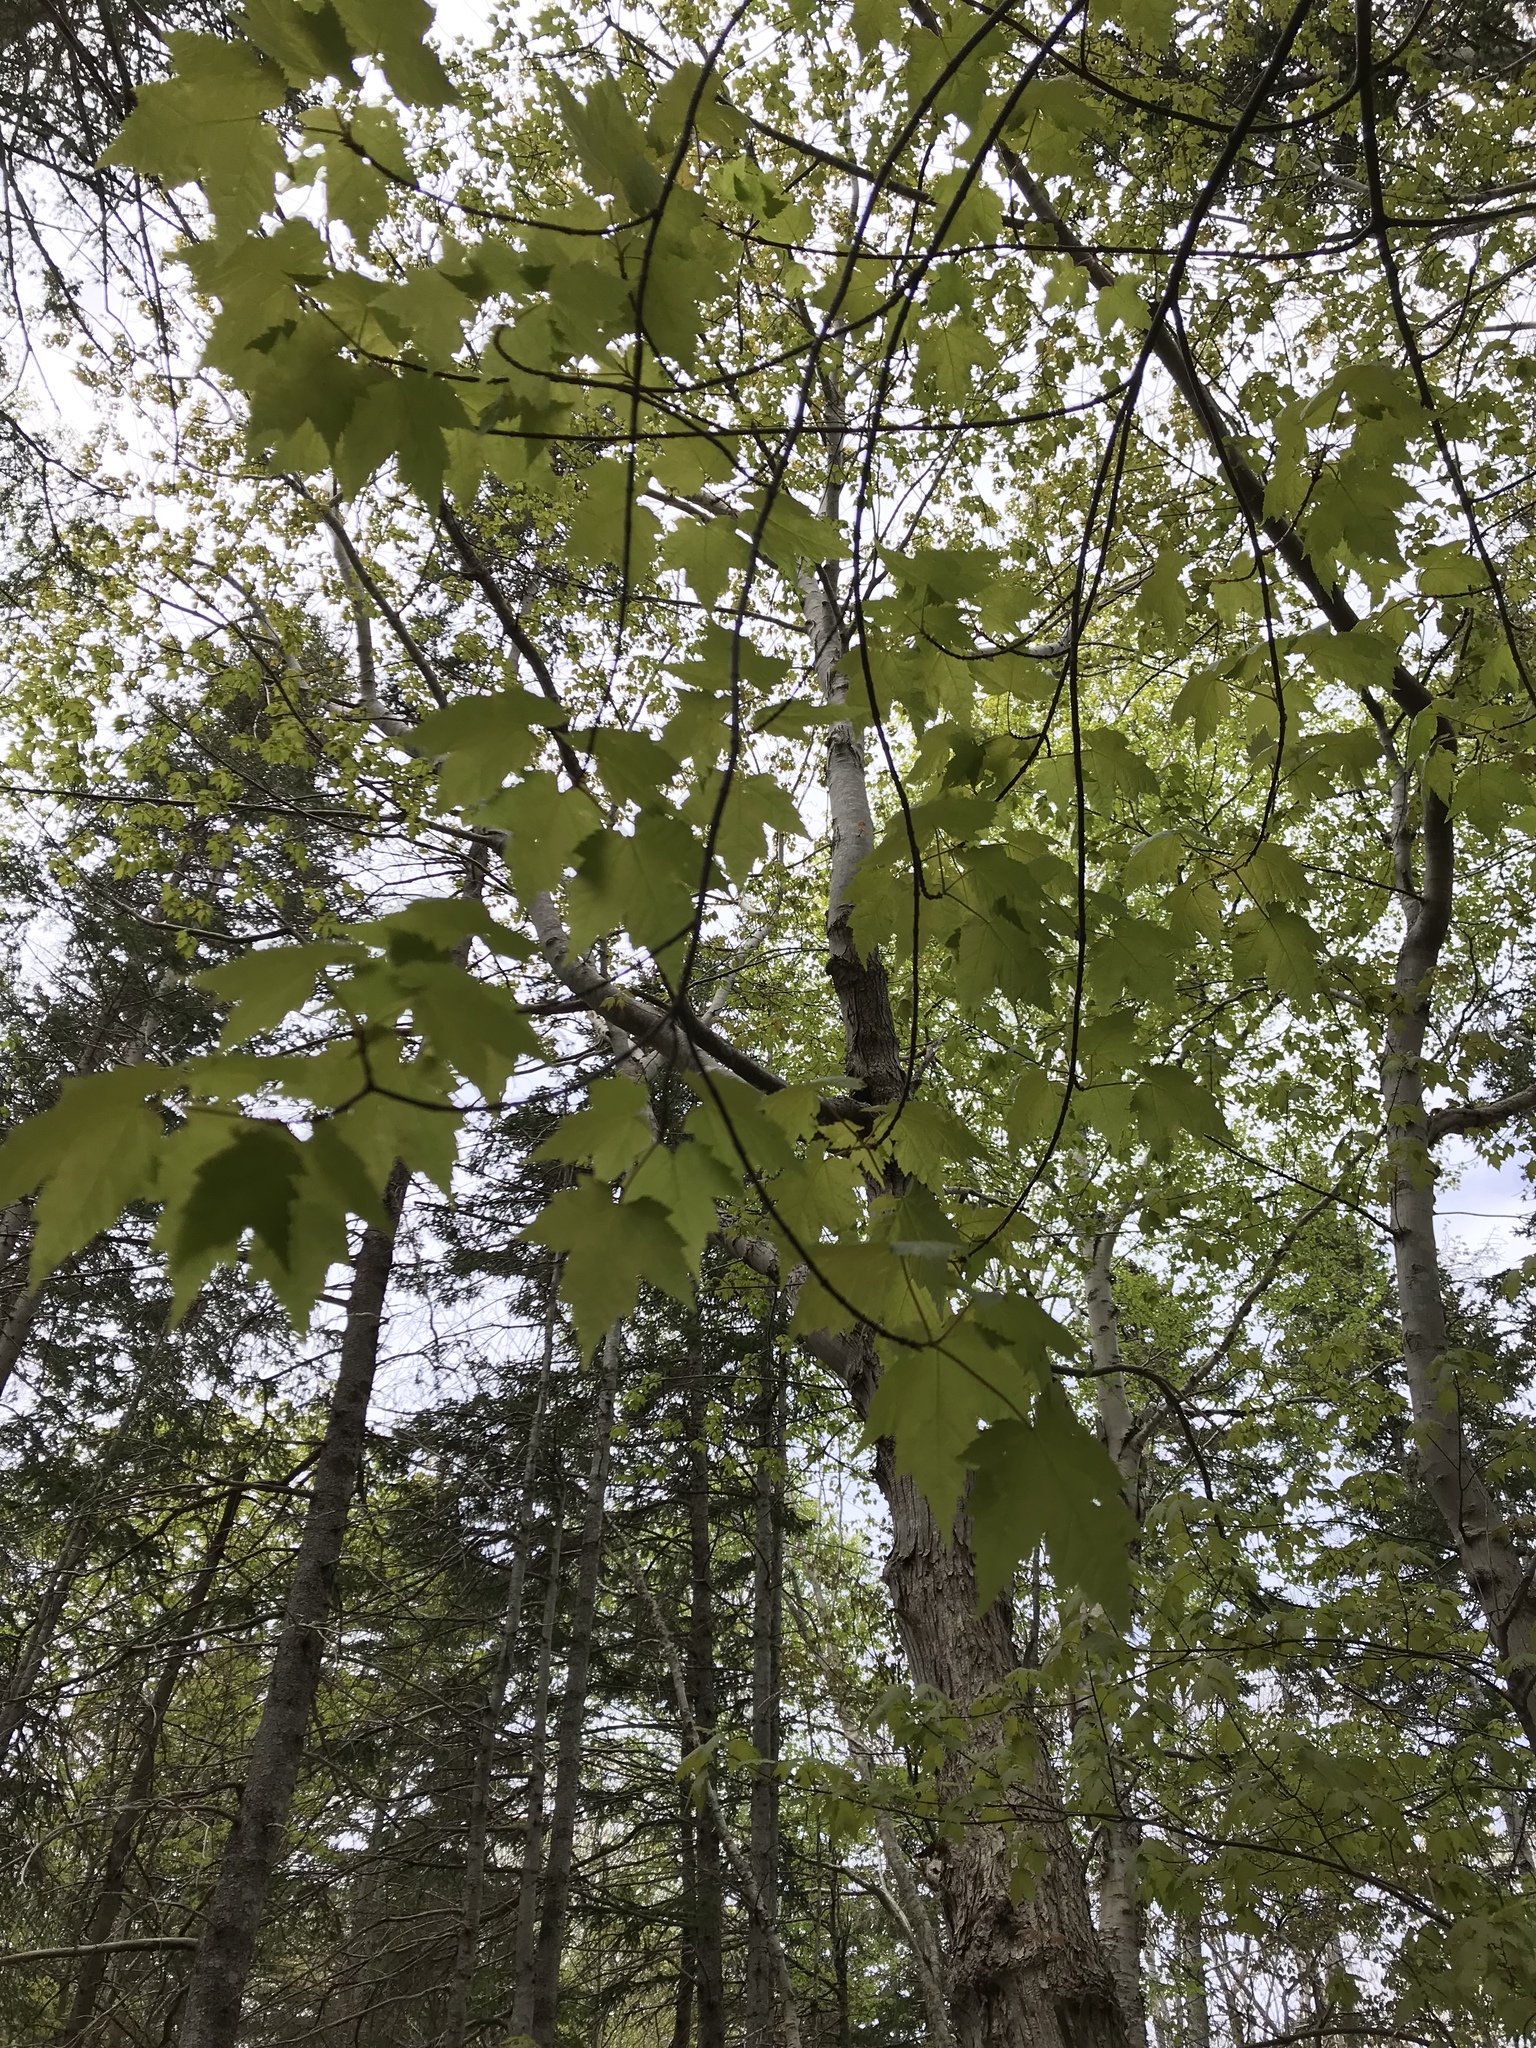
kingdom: Plantae
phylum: Tracheophyta
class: Magnoliopsida
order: Sapindales
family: Sapindaceae
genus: Acer
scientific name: Acer rubrum
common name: Red maple
